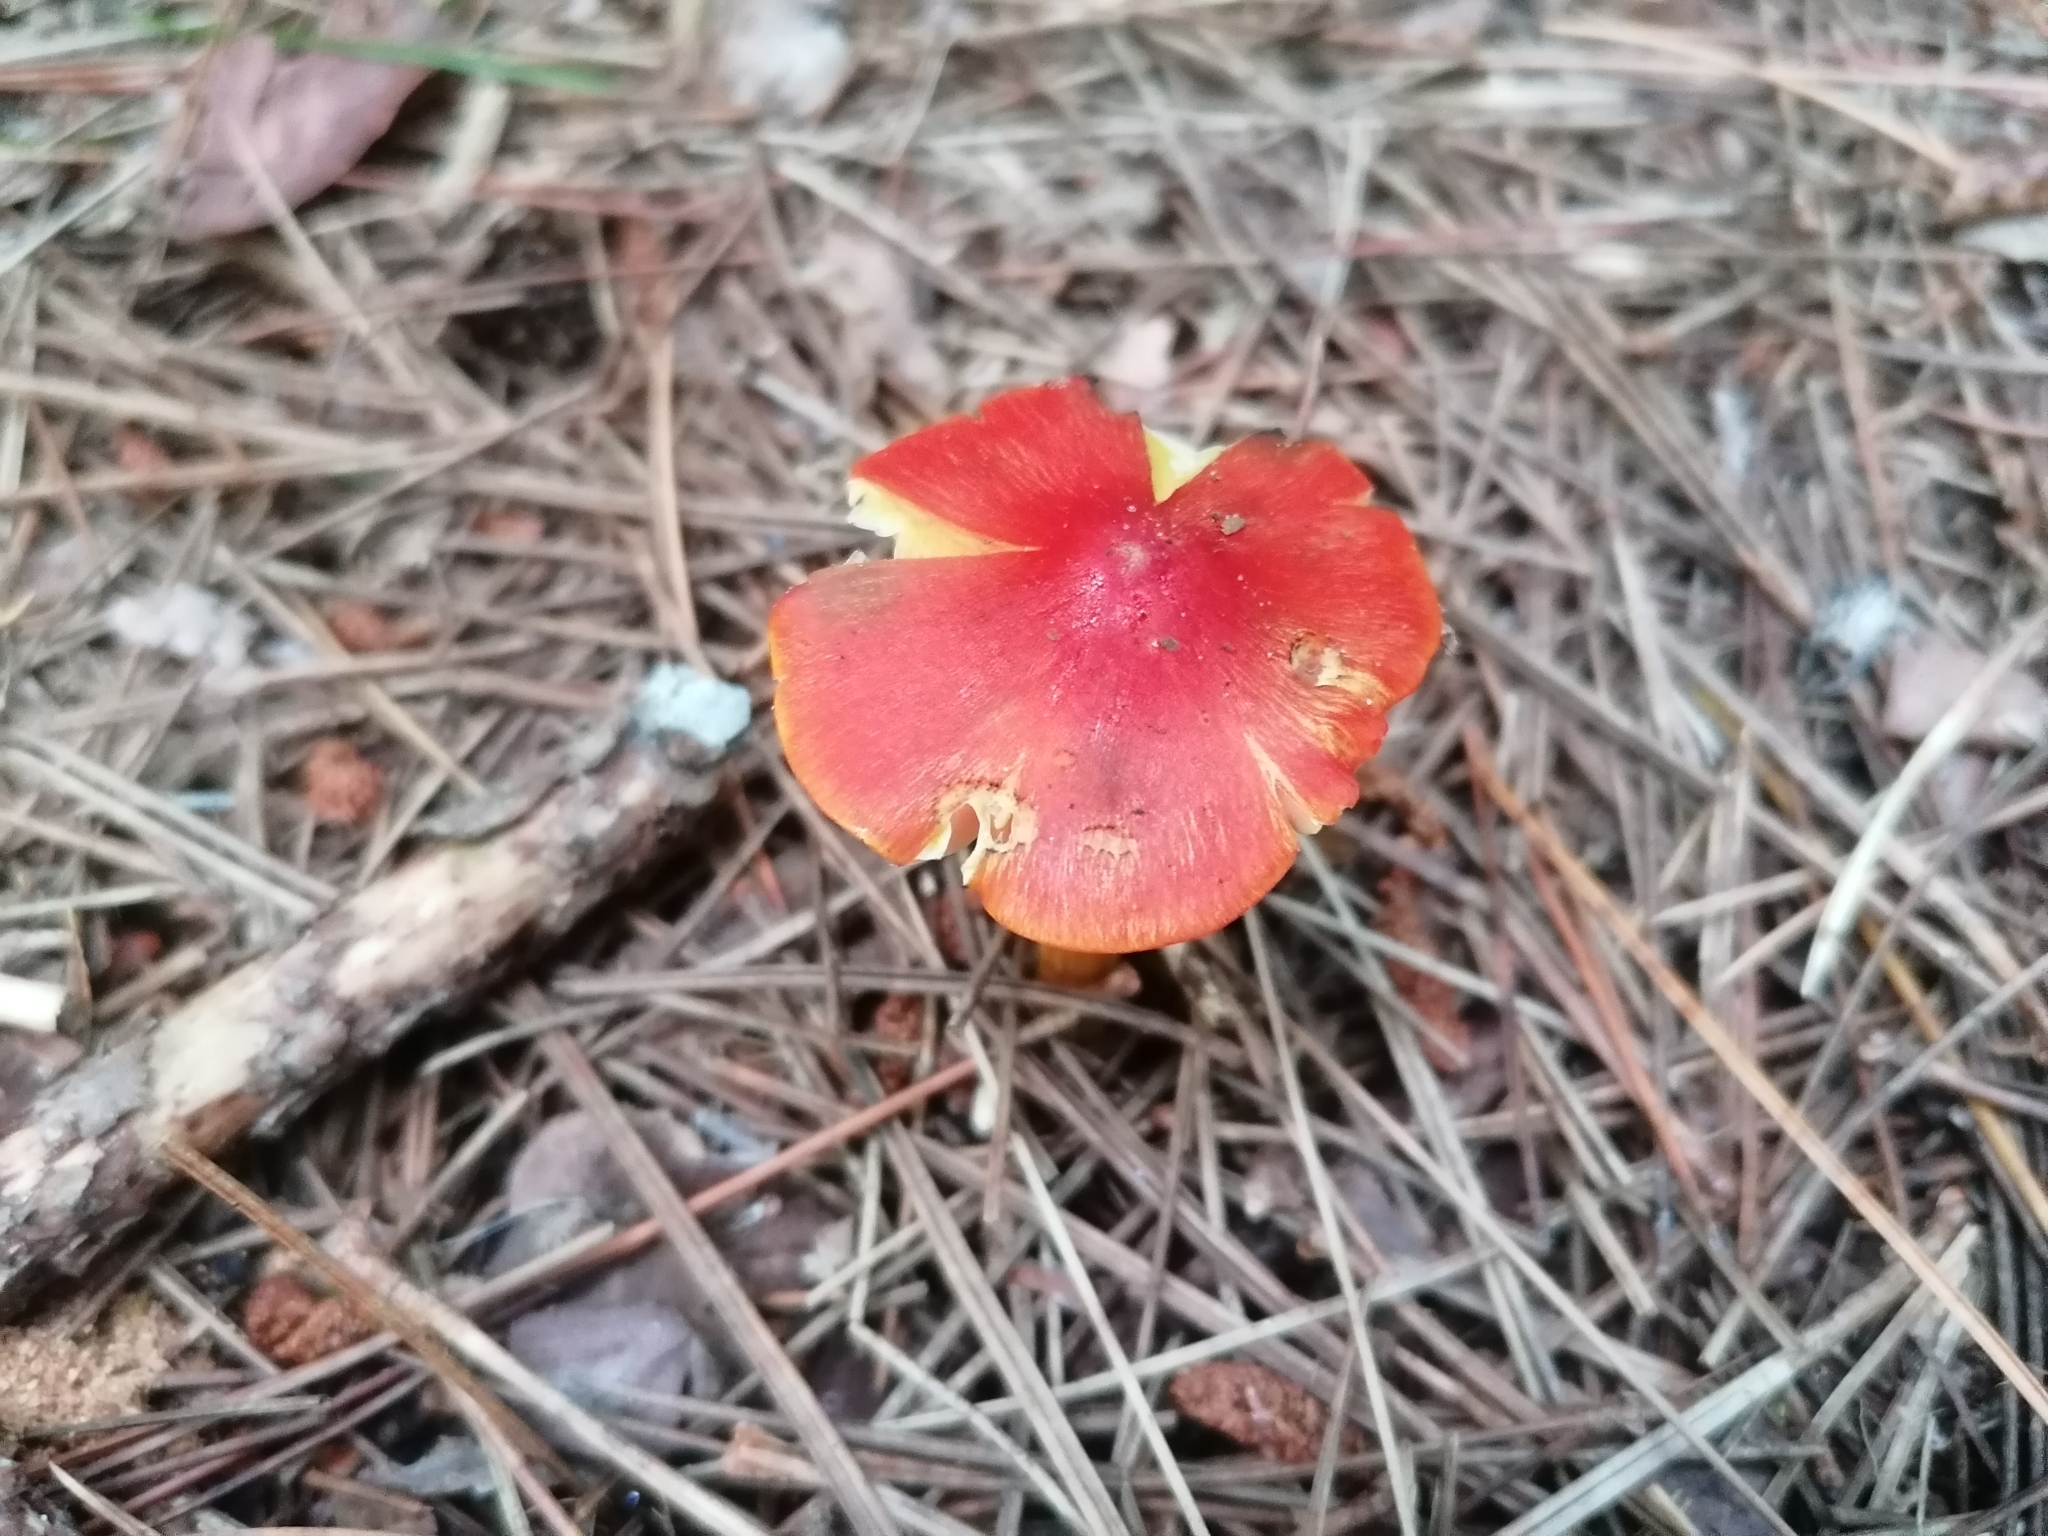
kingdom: Fungi
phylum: Basidiomycota
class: Agaricomycetes
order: Agaricales
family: Hygrophoraceae
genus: Hygrocybe
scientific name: Hygrocybe conica
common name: Blackening wax-cap
